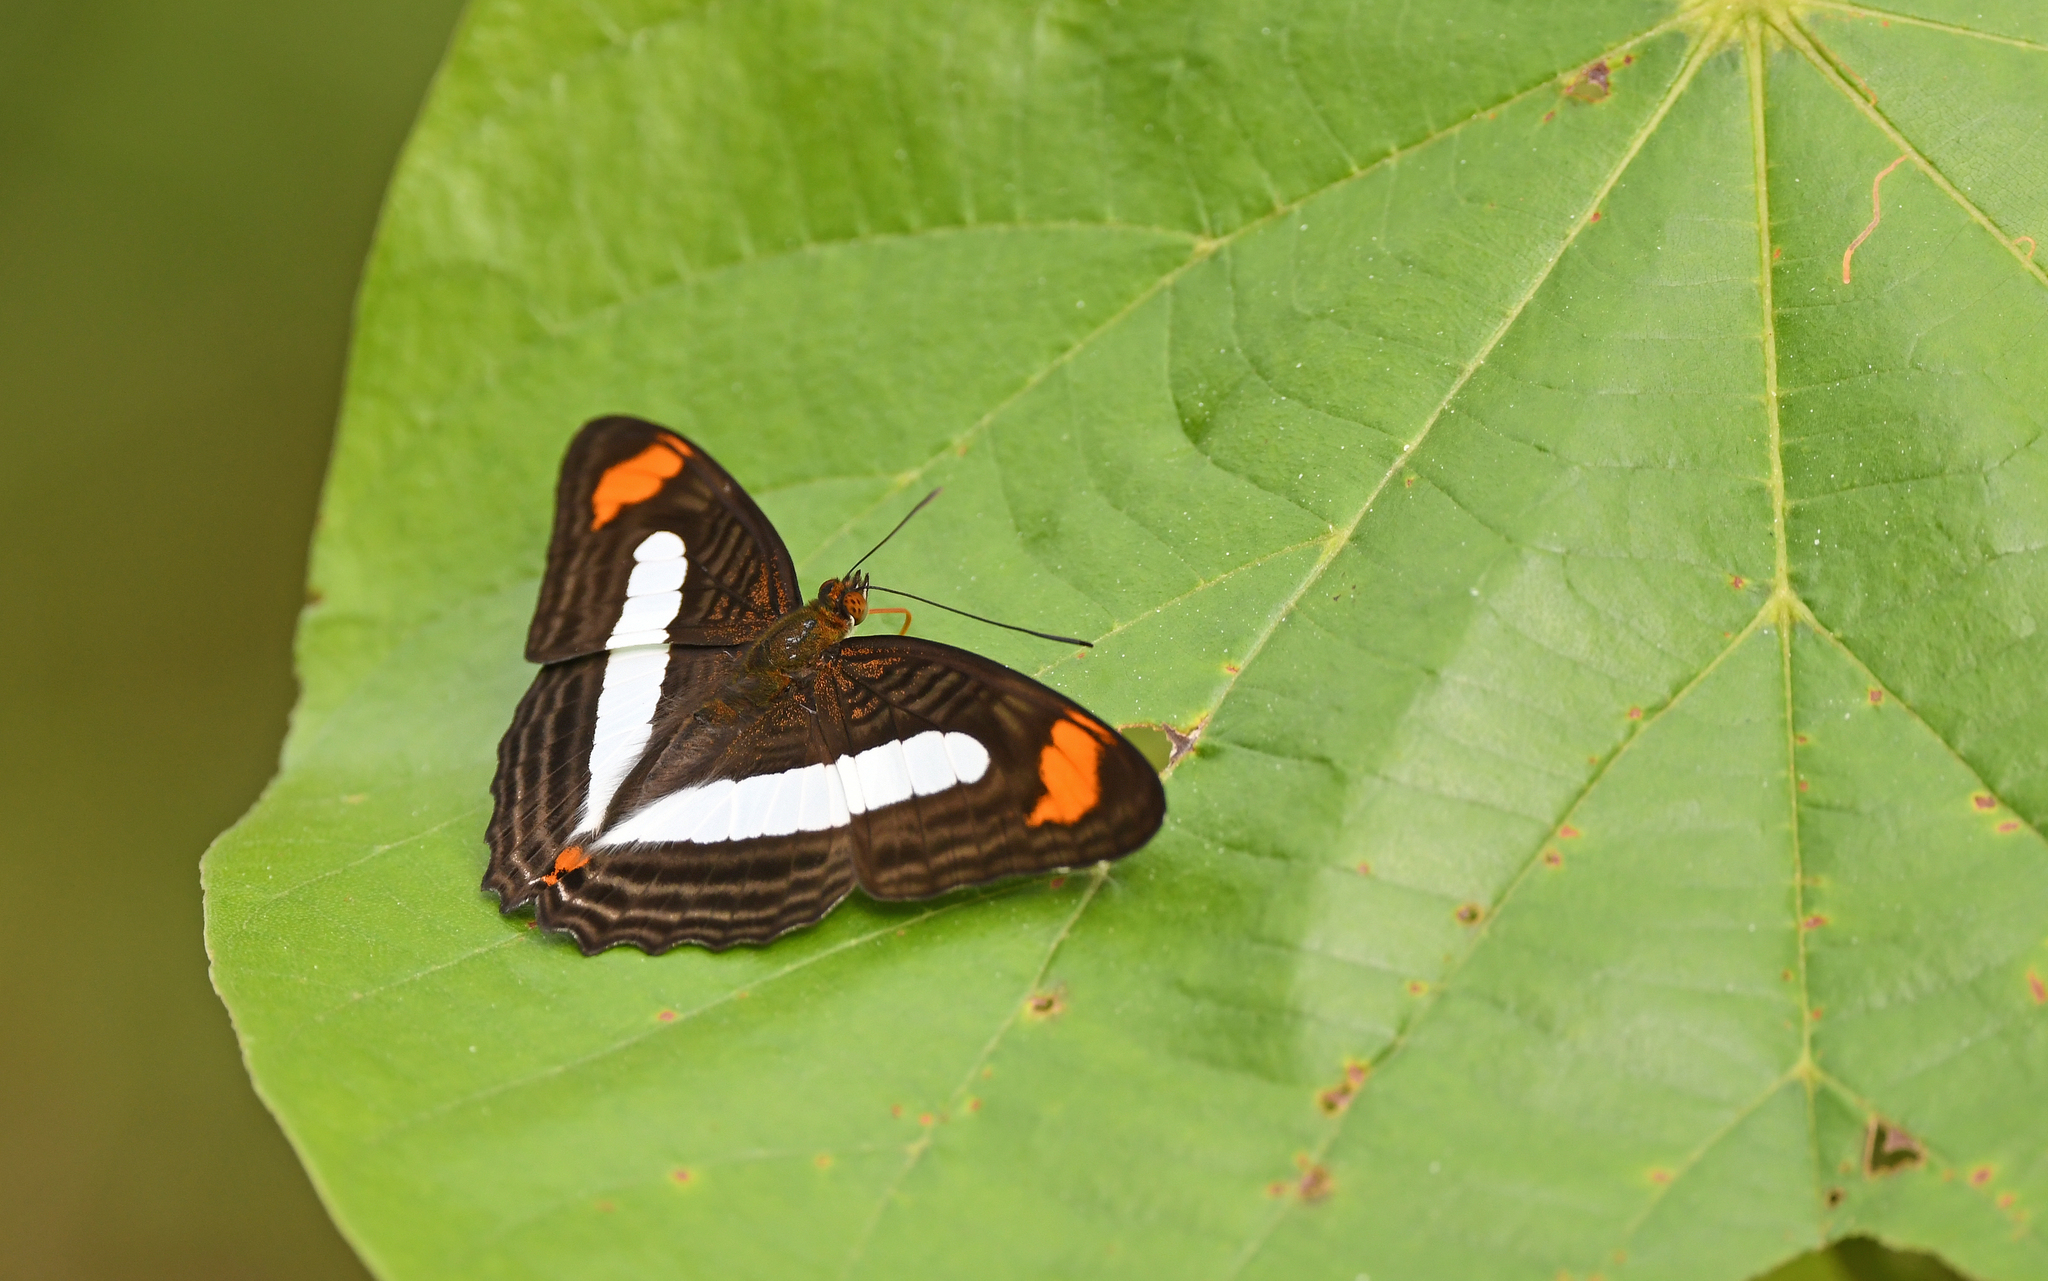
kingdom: Animalia
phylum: Arthropoda
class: Insecta
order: Lepidoptera
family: Nymphalidae
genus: Limenitis
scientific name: Limenitis Adelpha iphiclus
